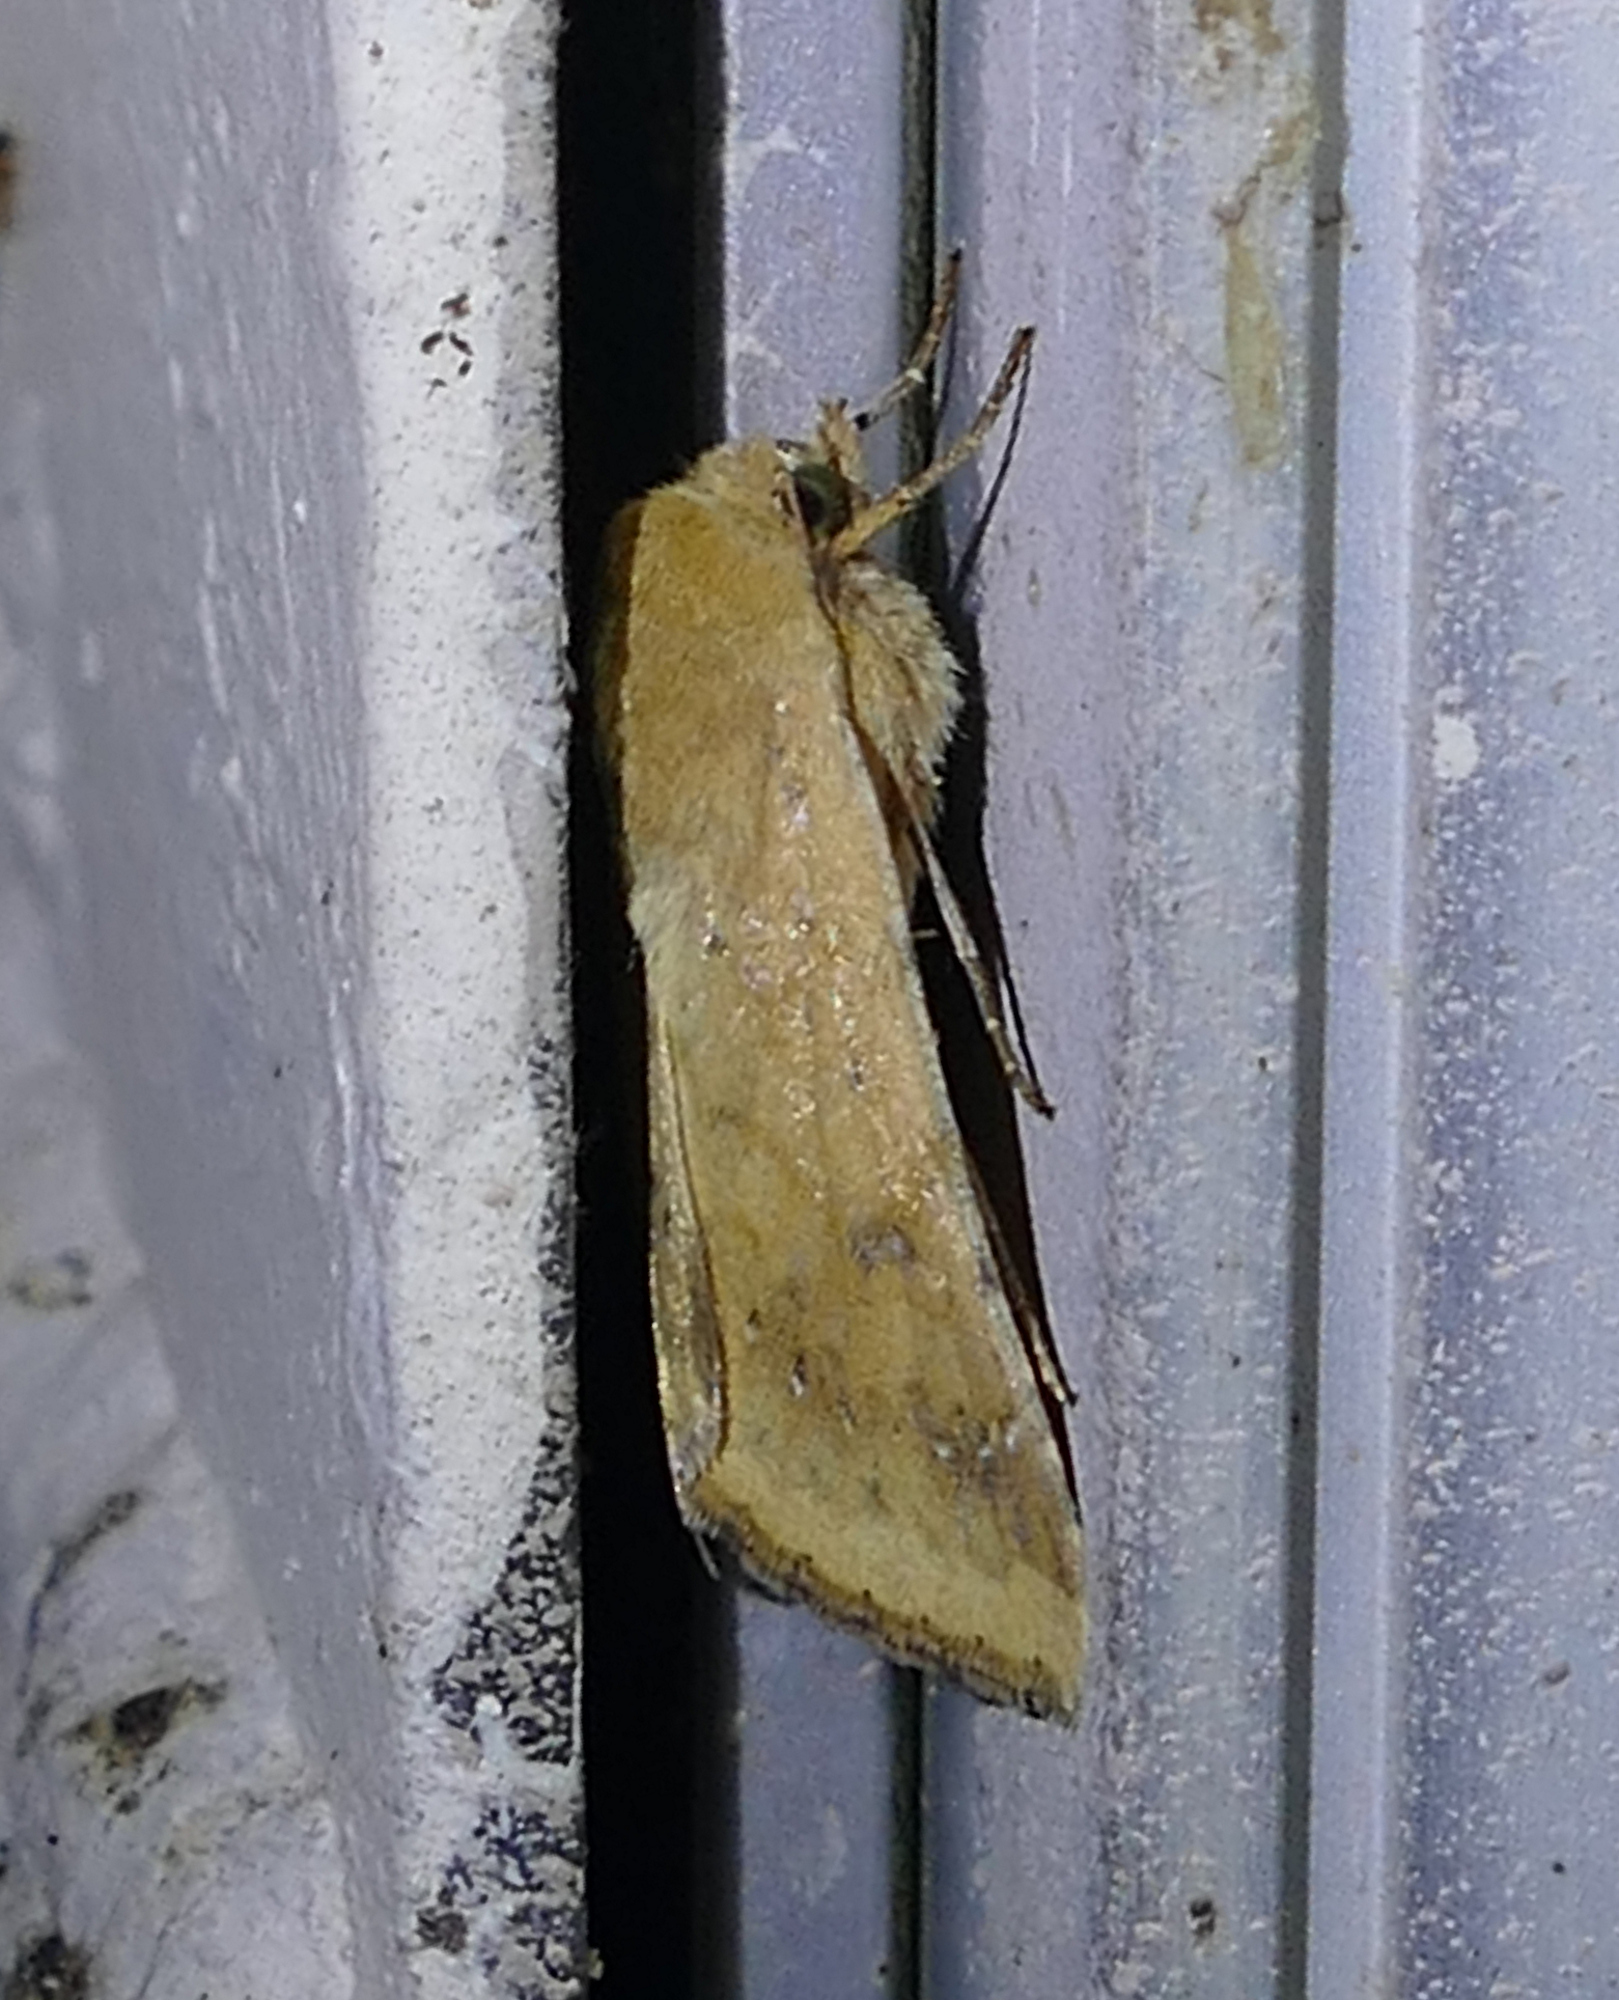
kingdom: Animalia
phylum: Arthropoda
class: Insecta
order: Lepidoptera
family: Noctuidae
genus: Helicoverpa
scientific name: Helicoverpa zea
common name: Bollworm
